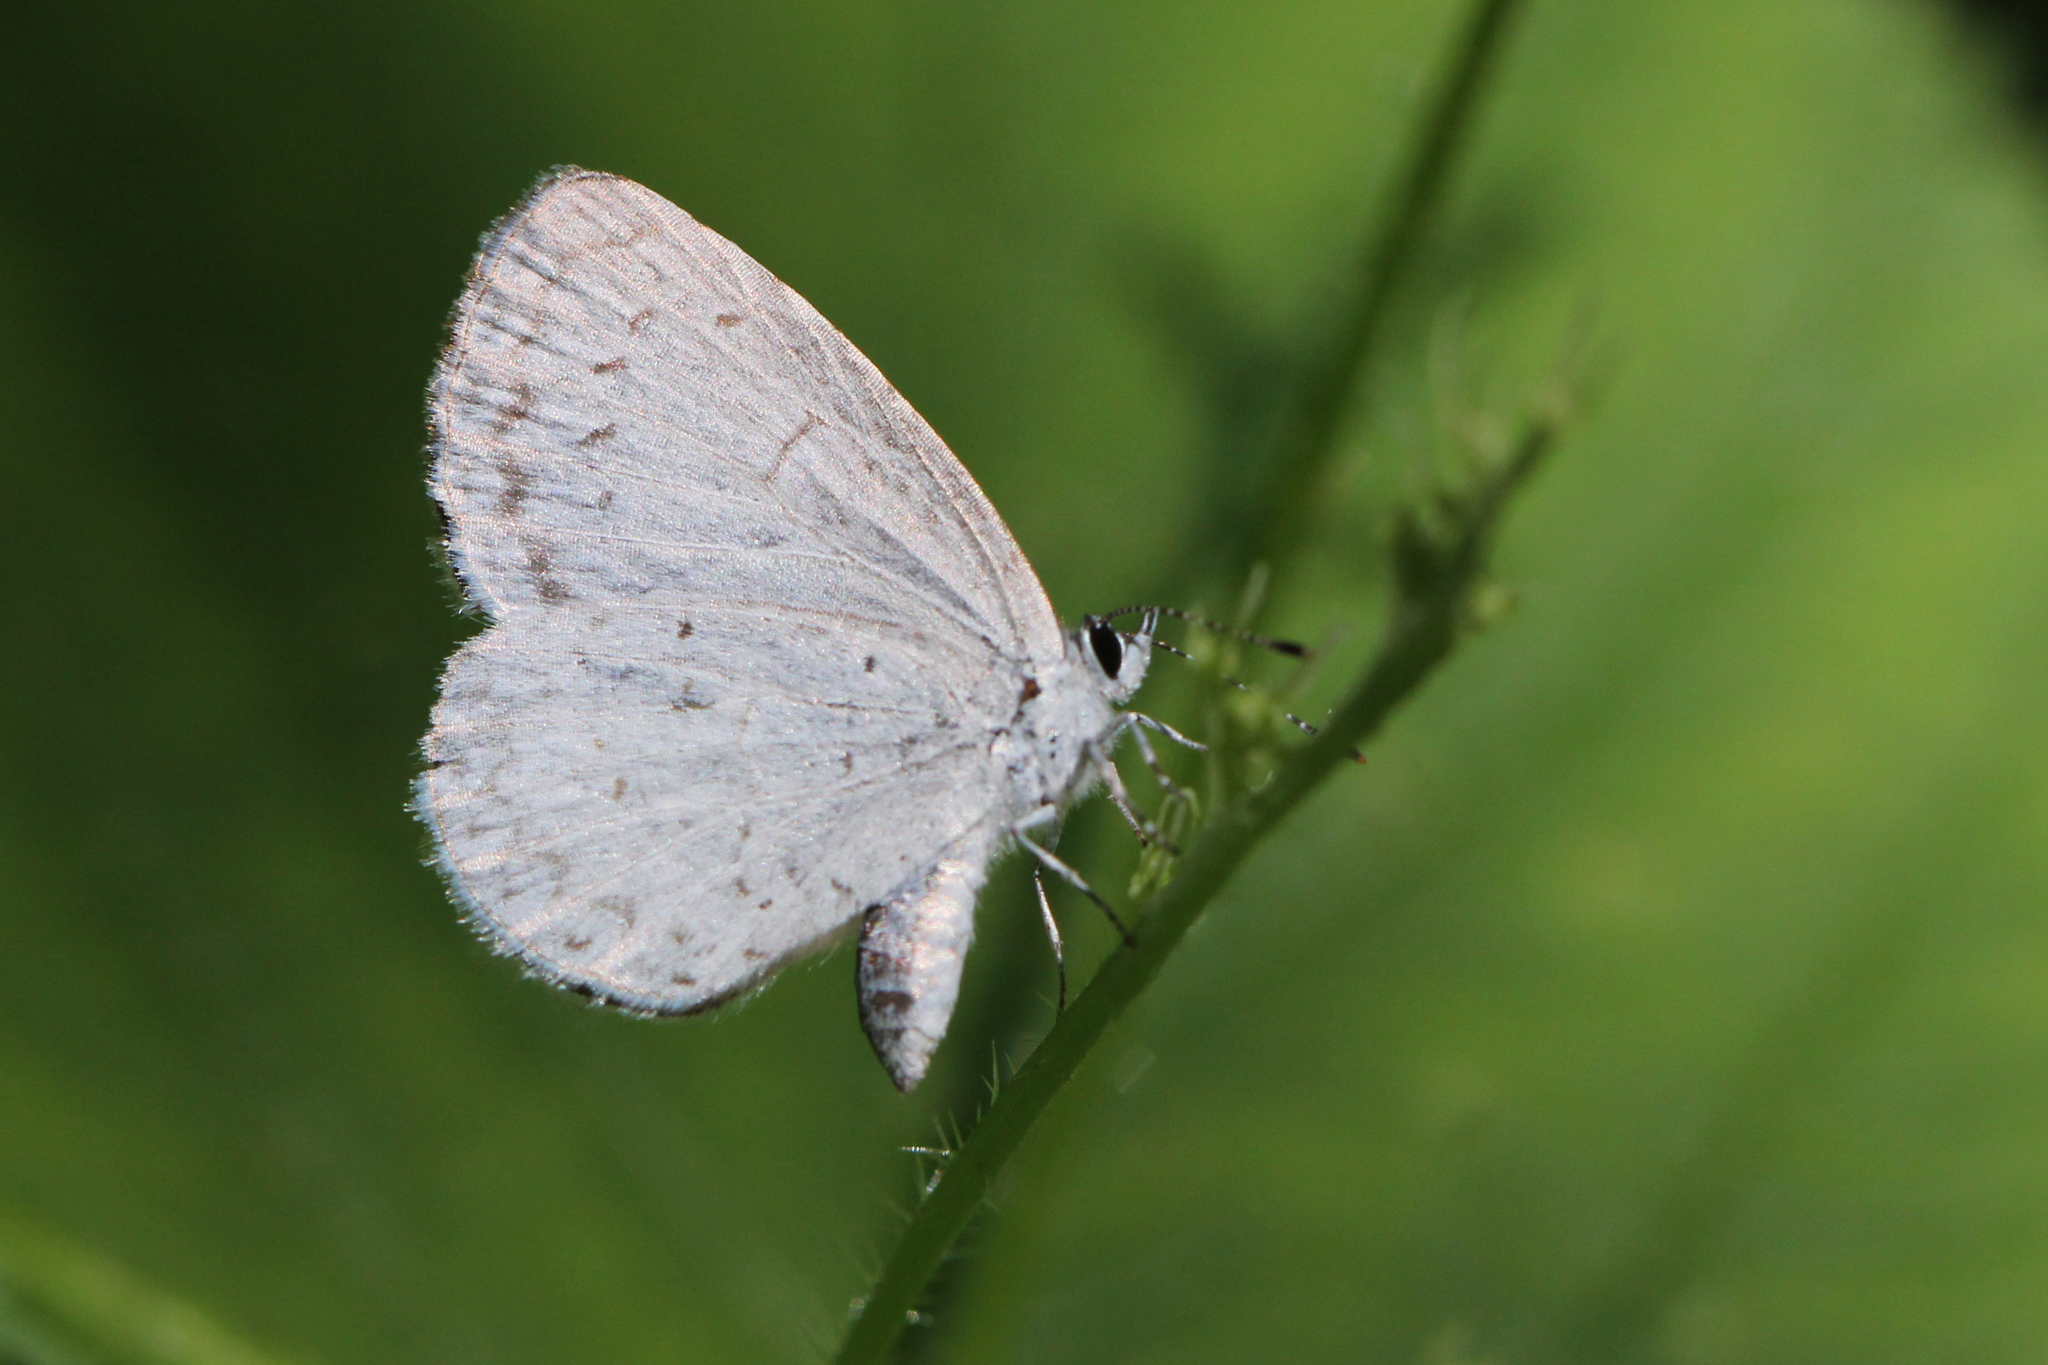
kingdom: Animalia
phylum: Arthropoda
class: Insecta
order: Lepidoptera
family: Lycaenidae
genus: Celastrina
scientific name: Celastrina neglectamajor
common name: Appalachian azure
